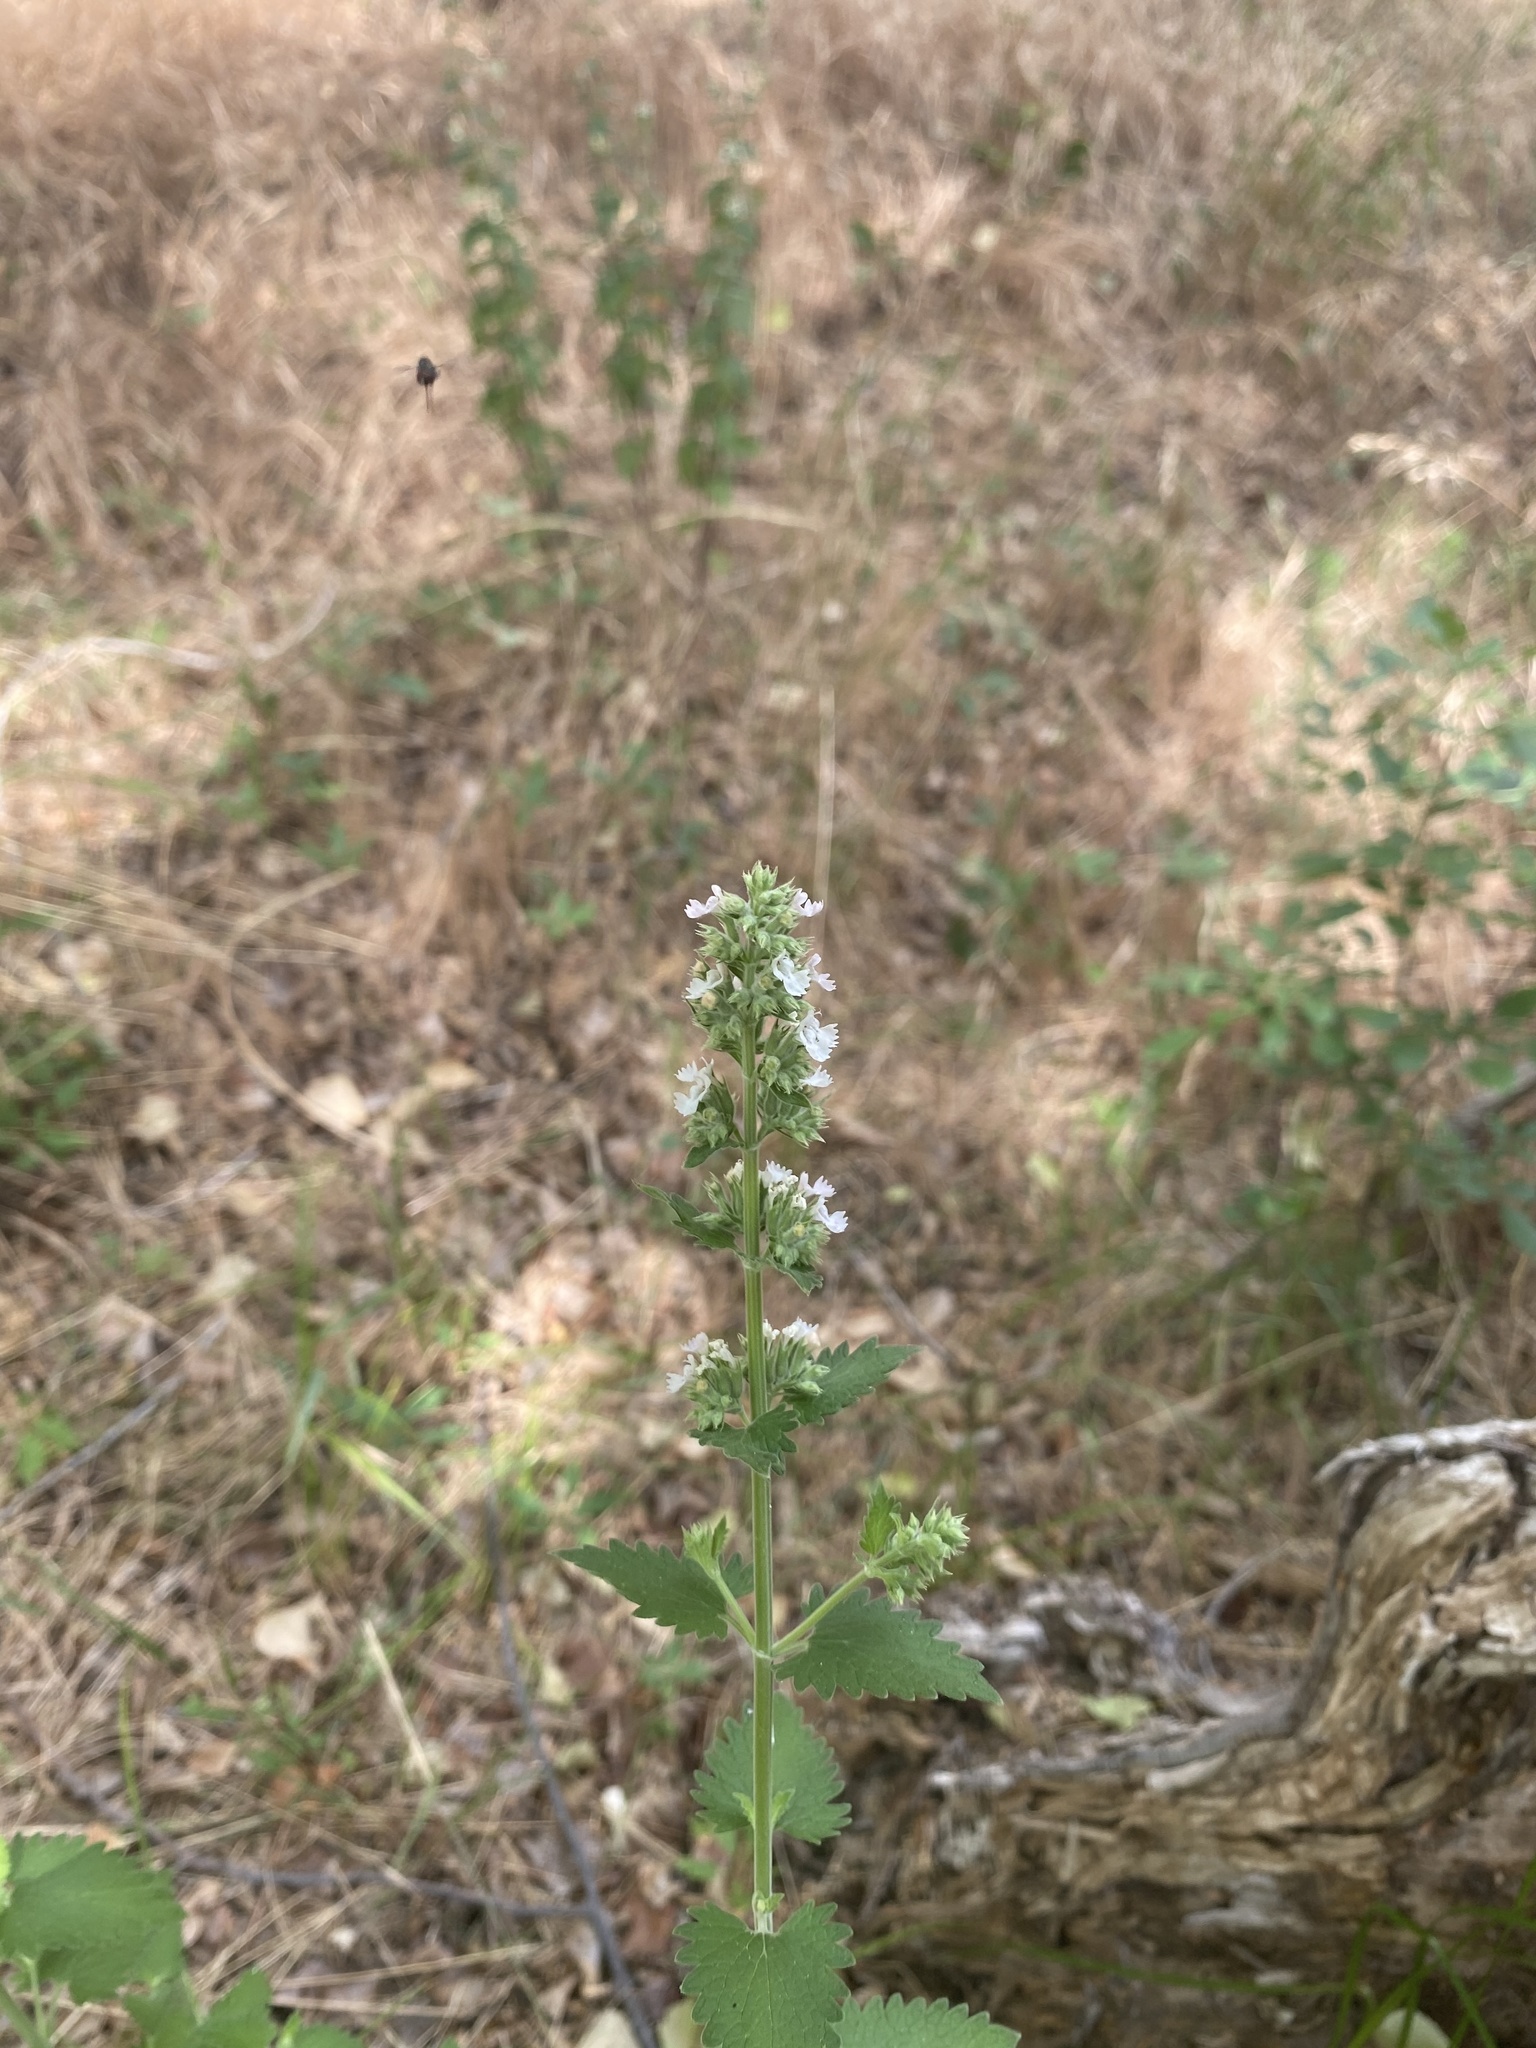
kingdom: Plantae
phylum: Tracheophyta
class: Magnoliopsida
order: Lamiales
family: Lamiaceae
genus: Nepeta
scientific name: Nepeta cataria
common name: Catnip
